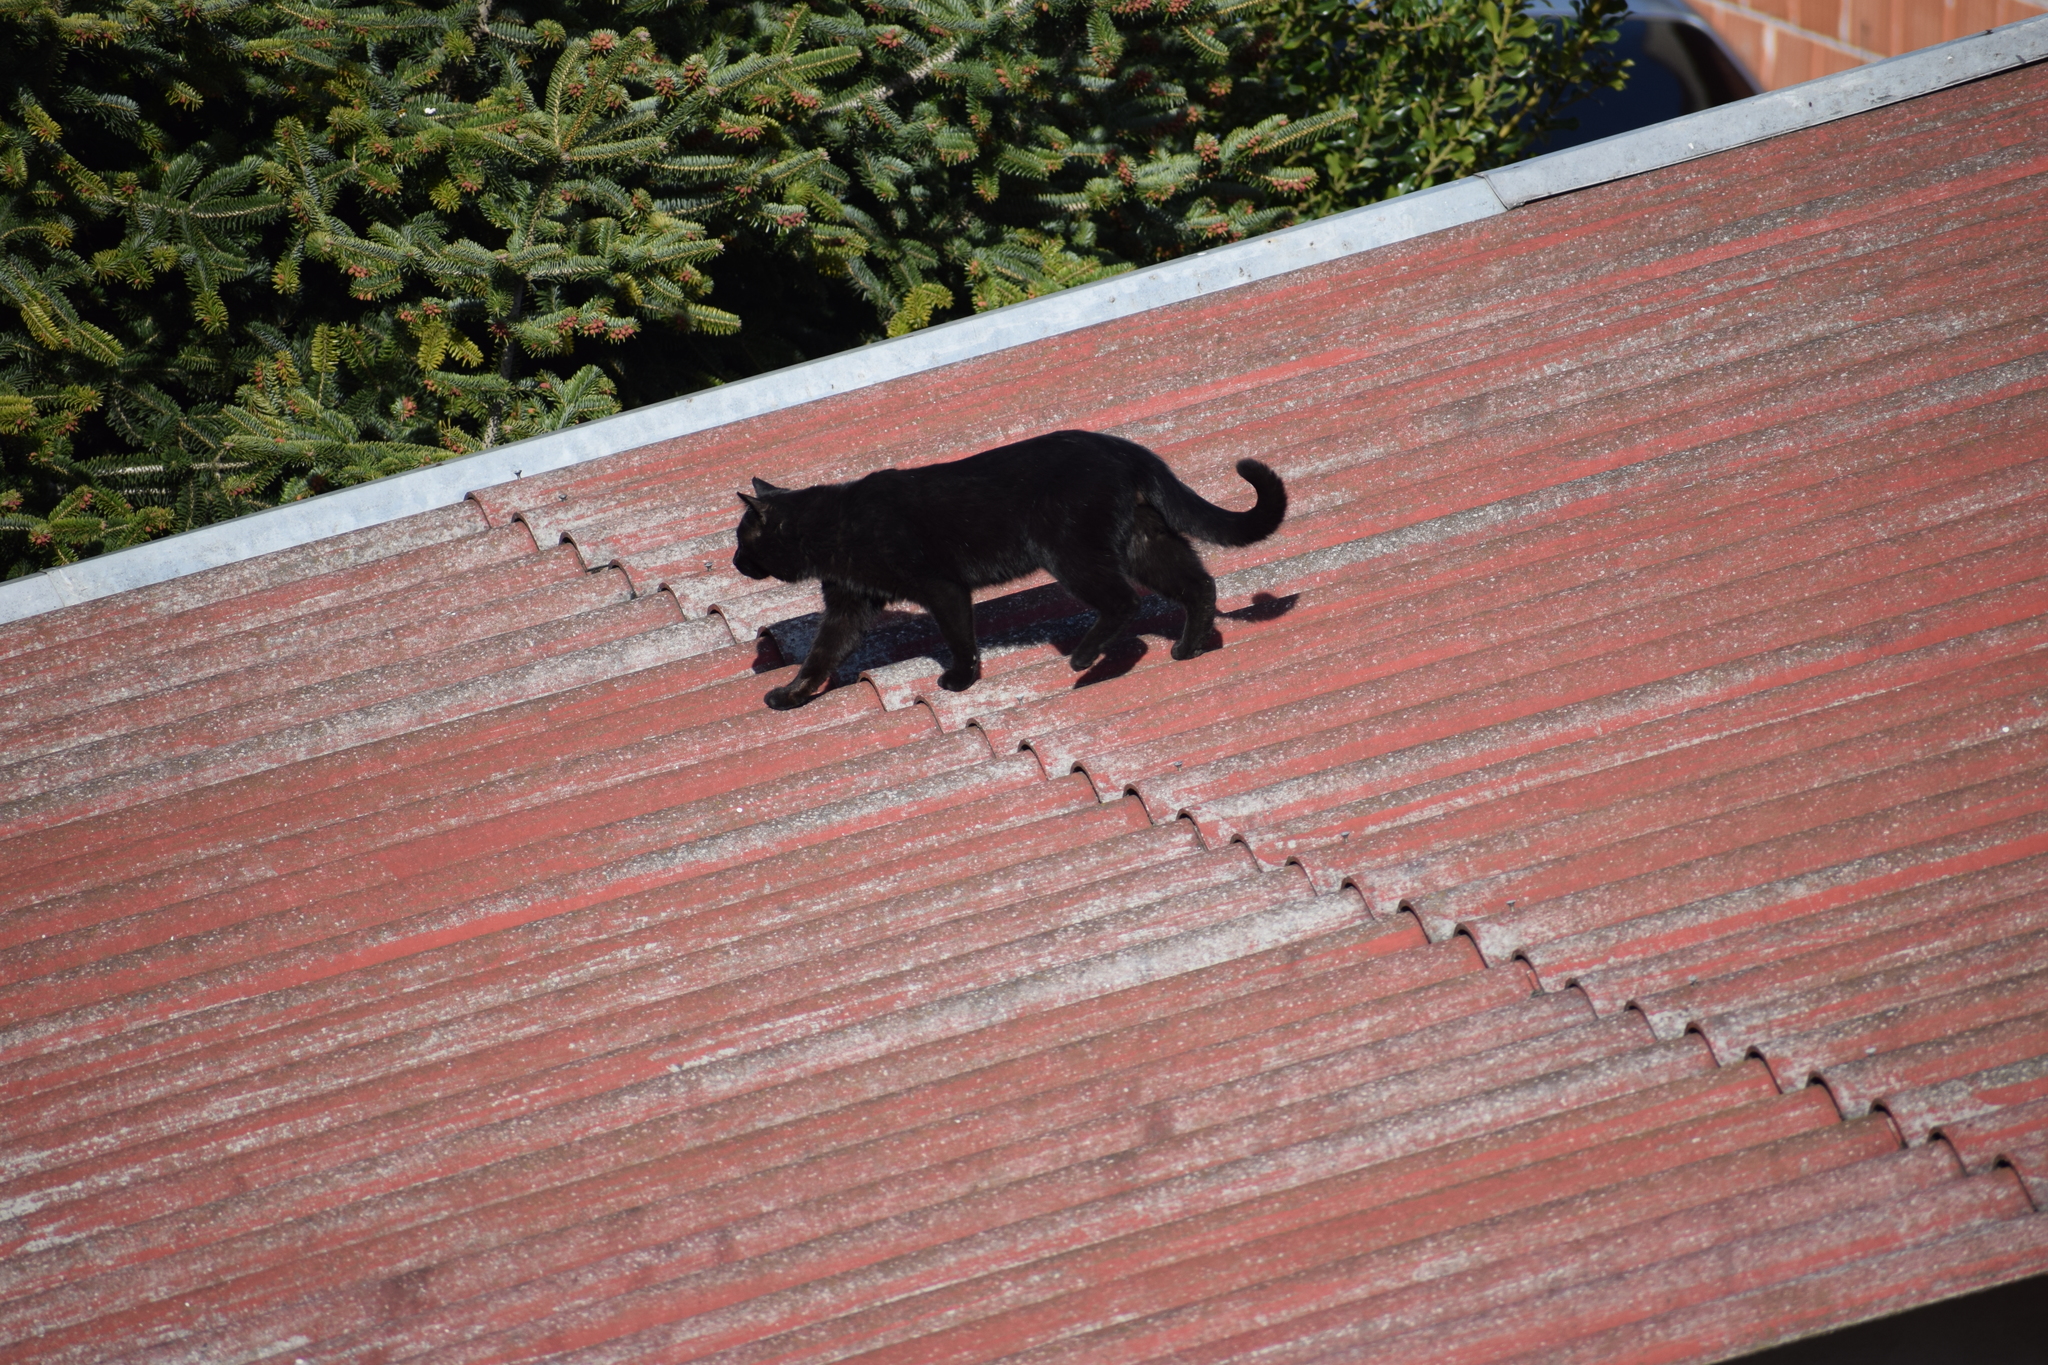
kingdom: Animalia
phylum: Chordata
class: Mammalia
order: Carnivora
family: Felidae
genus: Felis
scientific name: Felis catus
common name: Domestic cat
